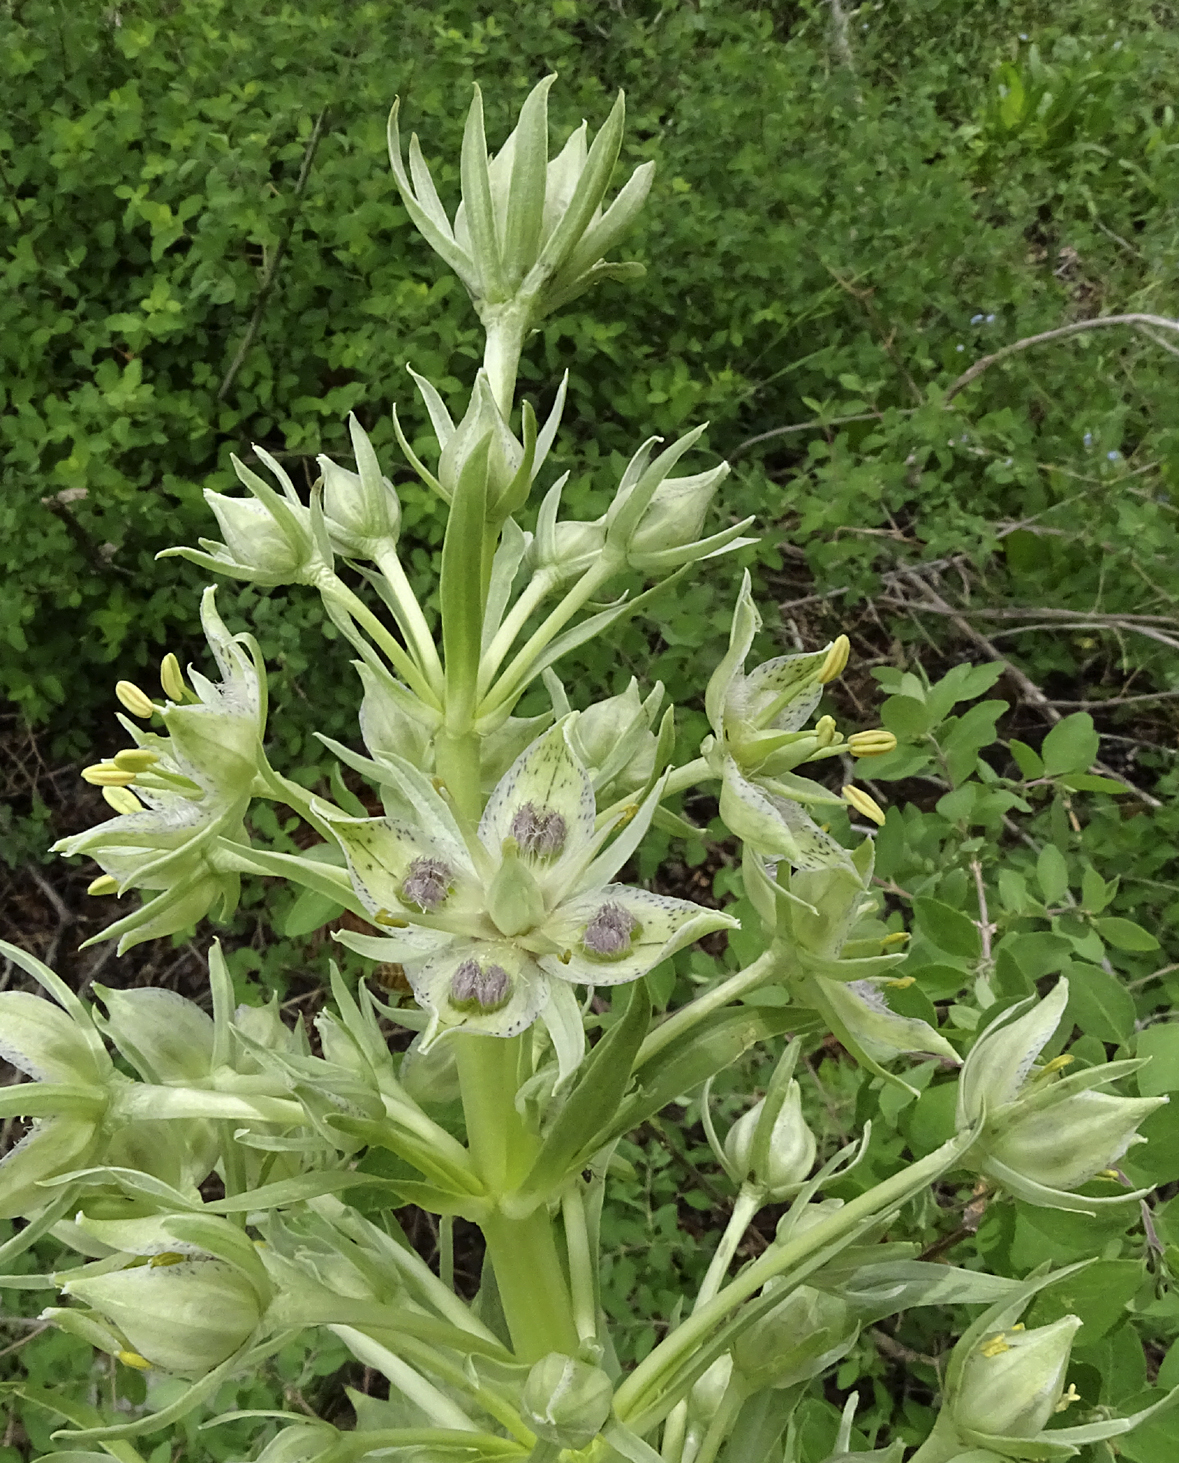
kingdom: Plantae
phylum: Tracheophyta
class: Magnoliopsida
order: Gentianales
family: Gentianaceae
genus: Frasera
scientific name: Frasera speciosa
